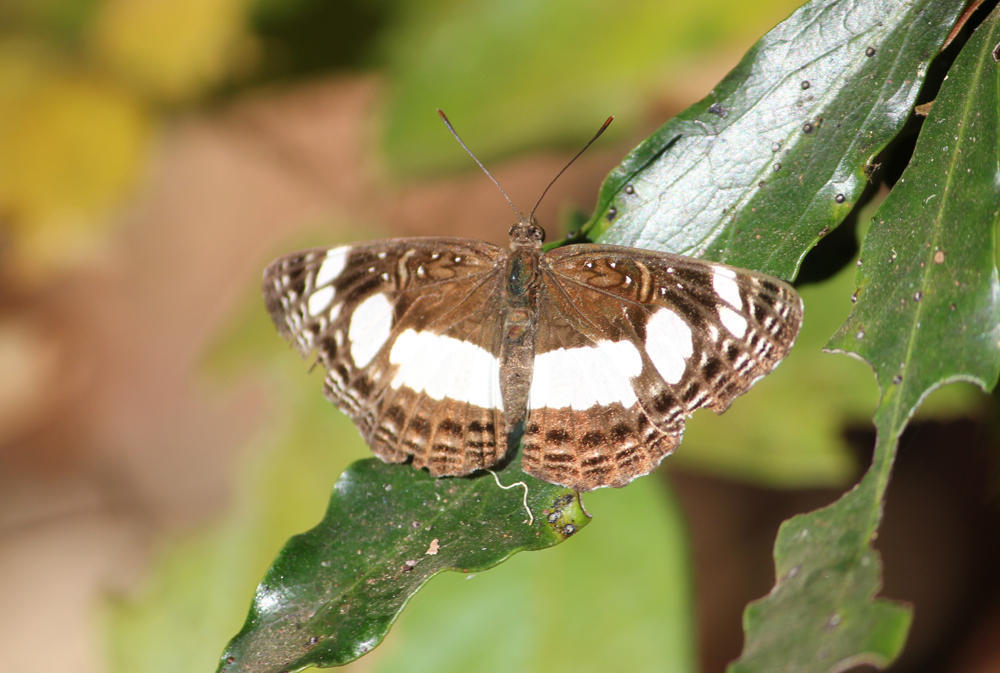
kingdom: Animalia
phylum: Arthropoda
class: Insecta
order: Lepidoptera
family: Nymphalidae
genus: Neptis
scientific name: Neptis saclava
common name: Small spotted sailor
